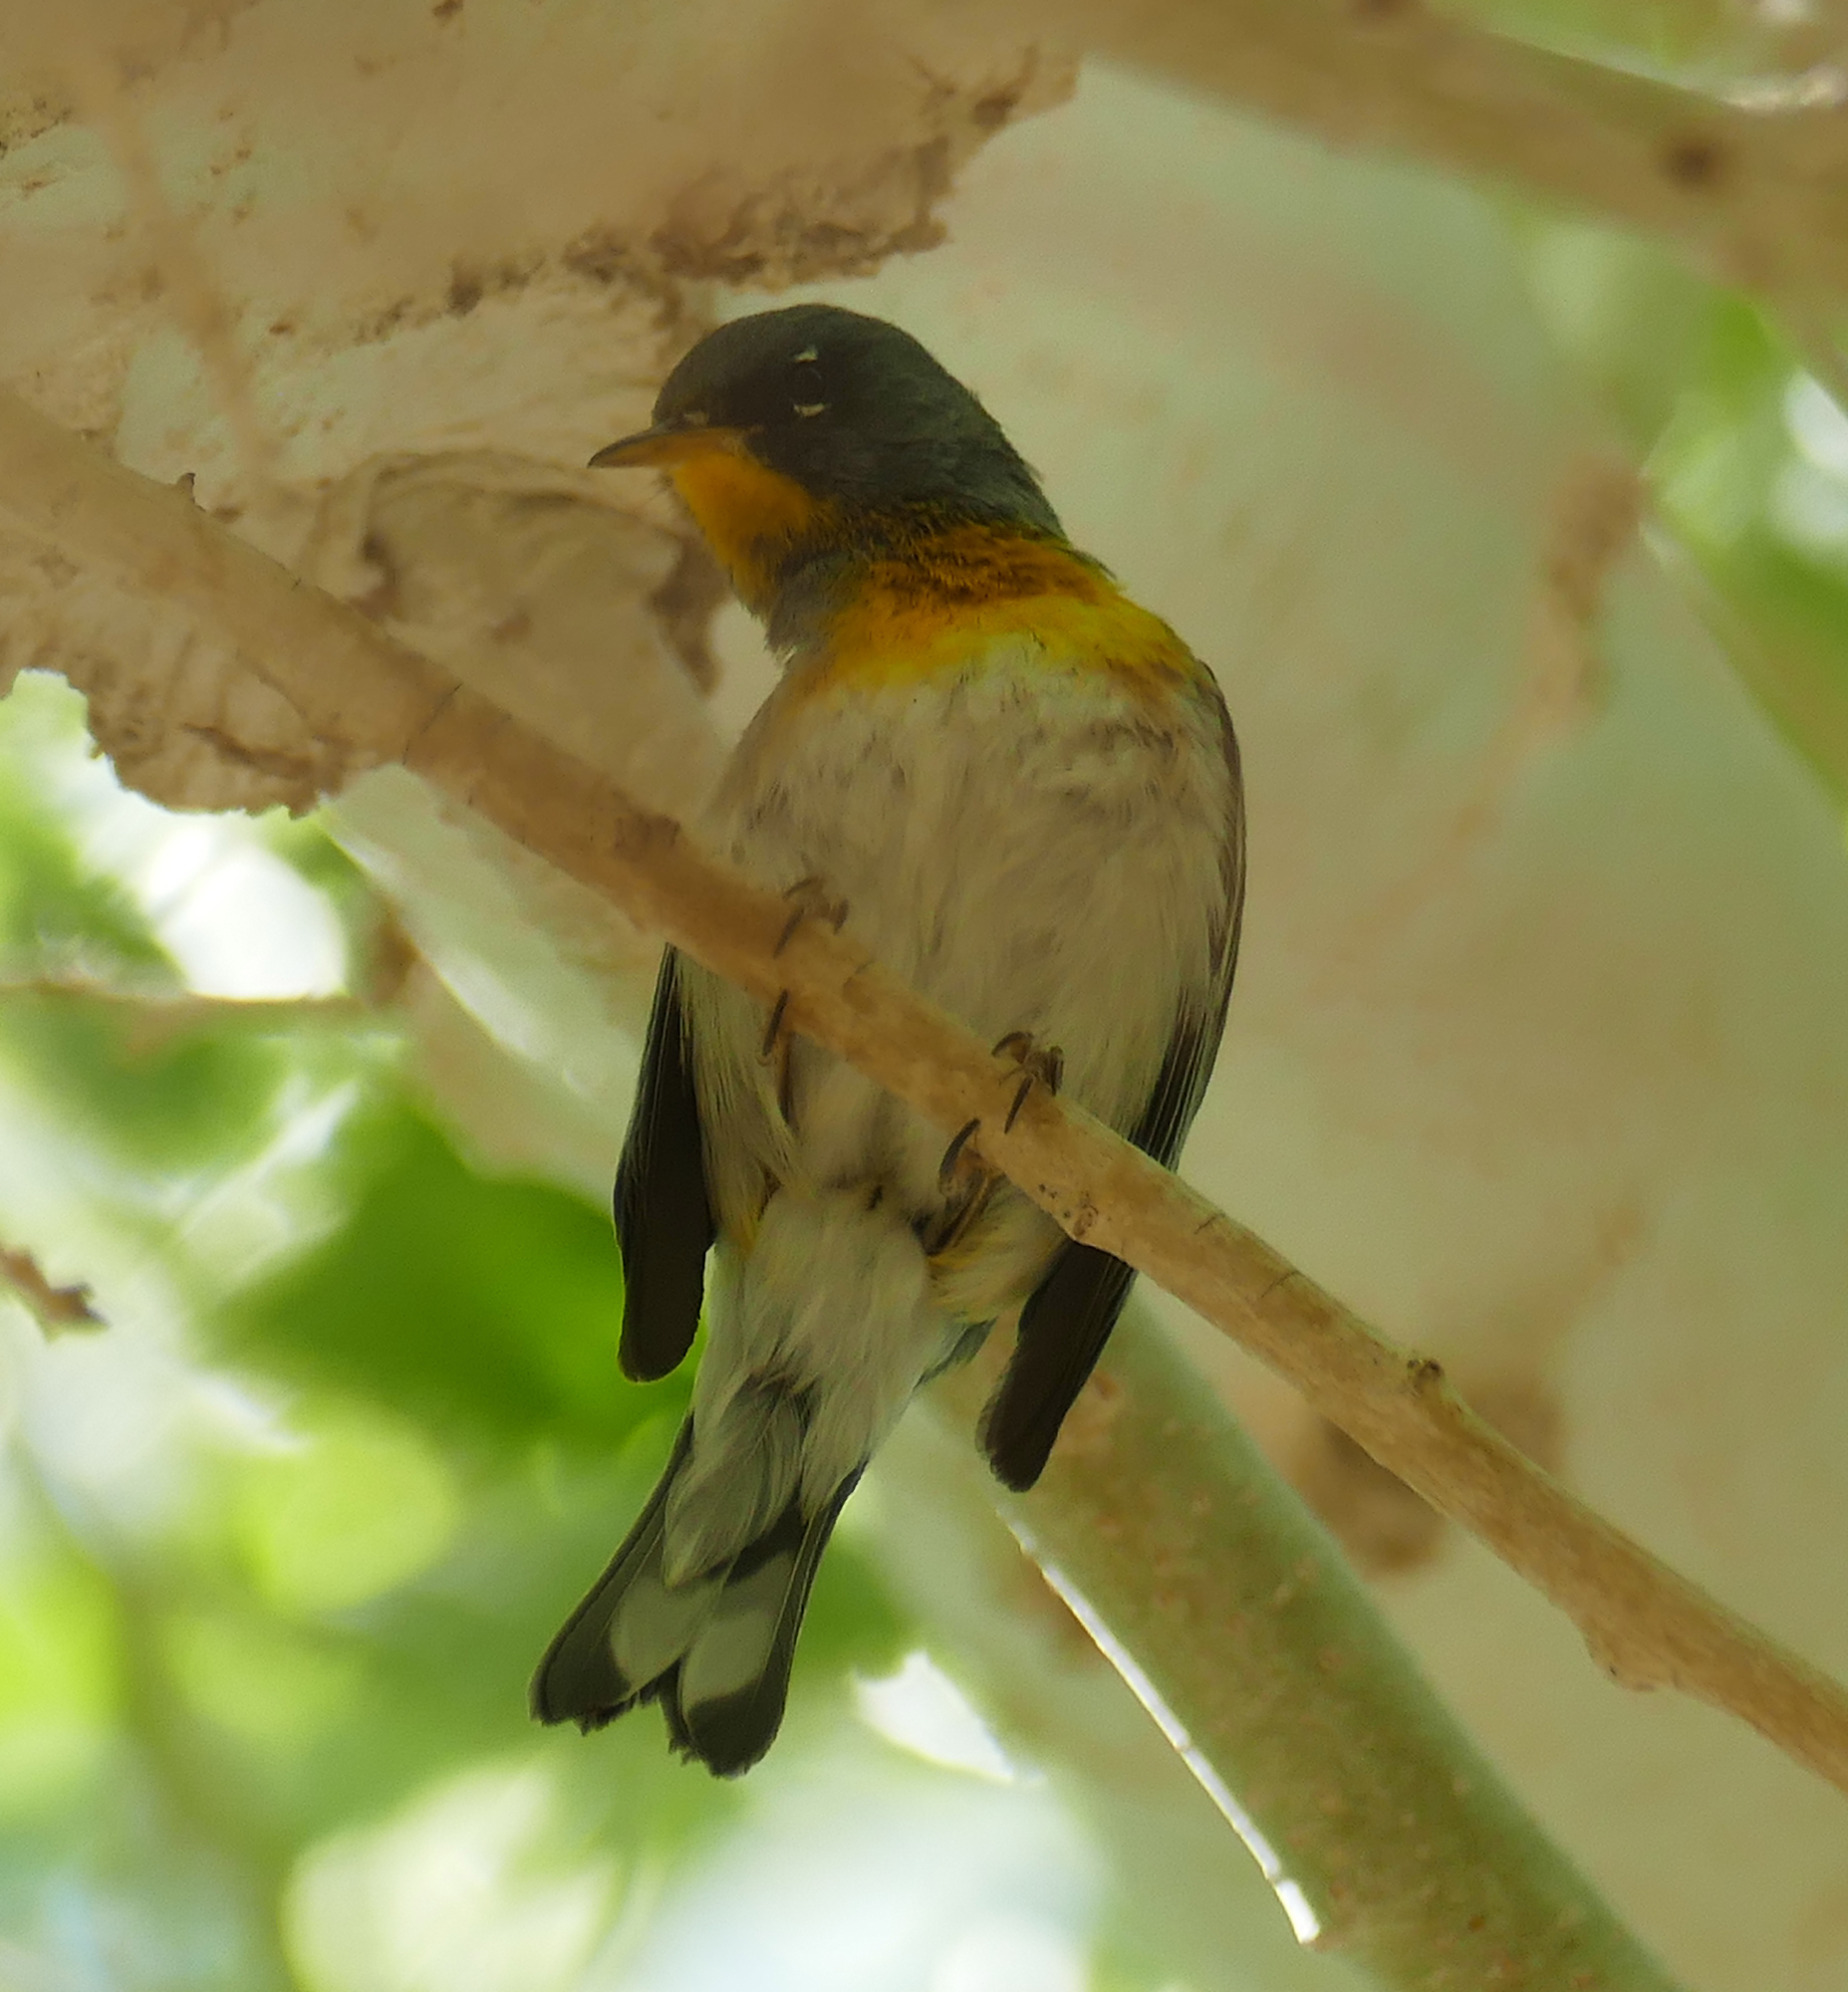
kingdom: Animalia
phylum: Chordata
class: Aves
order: Passeriformes
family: Parulidae
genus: Setophaga
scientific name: Setophaga americana
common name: Northern parula
